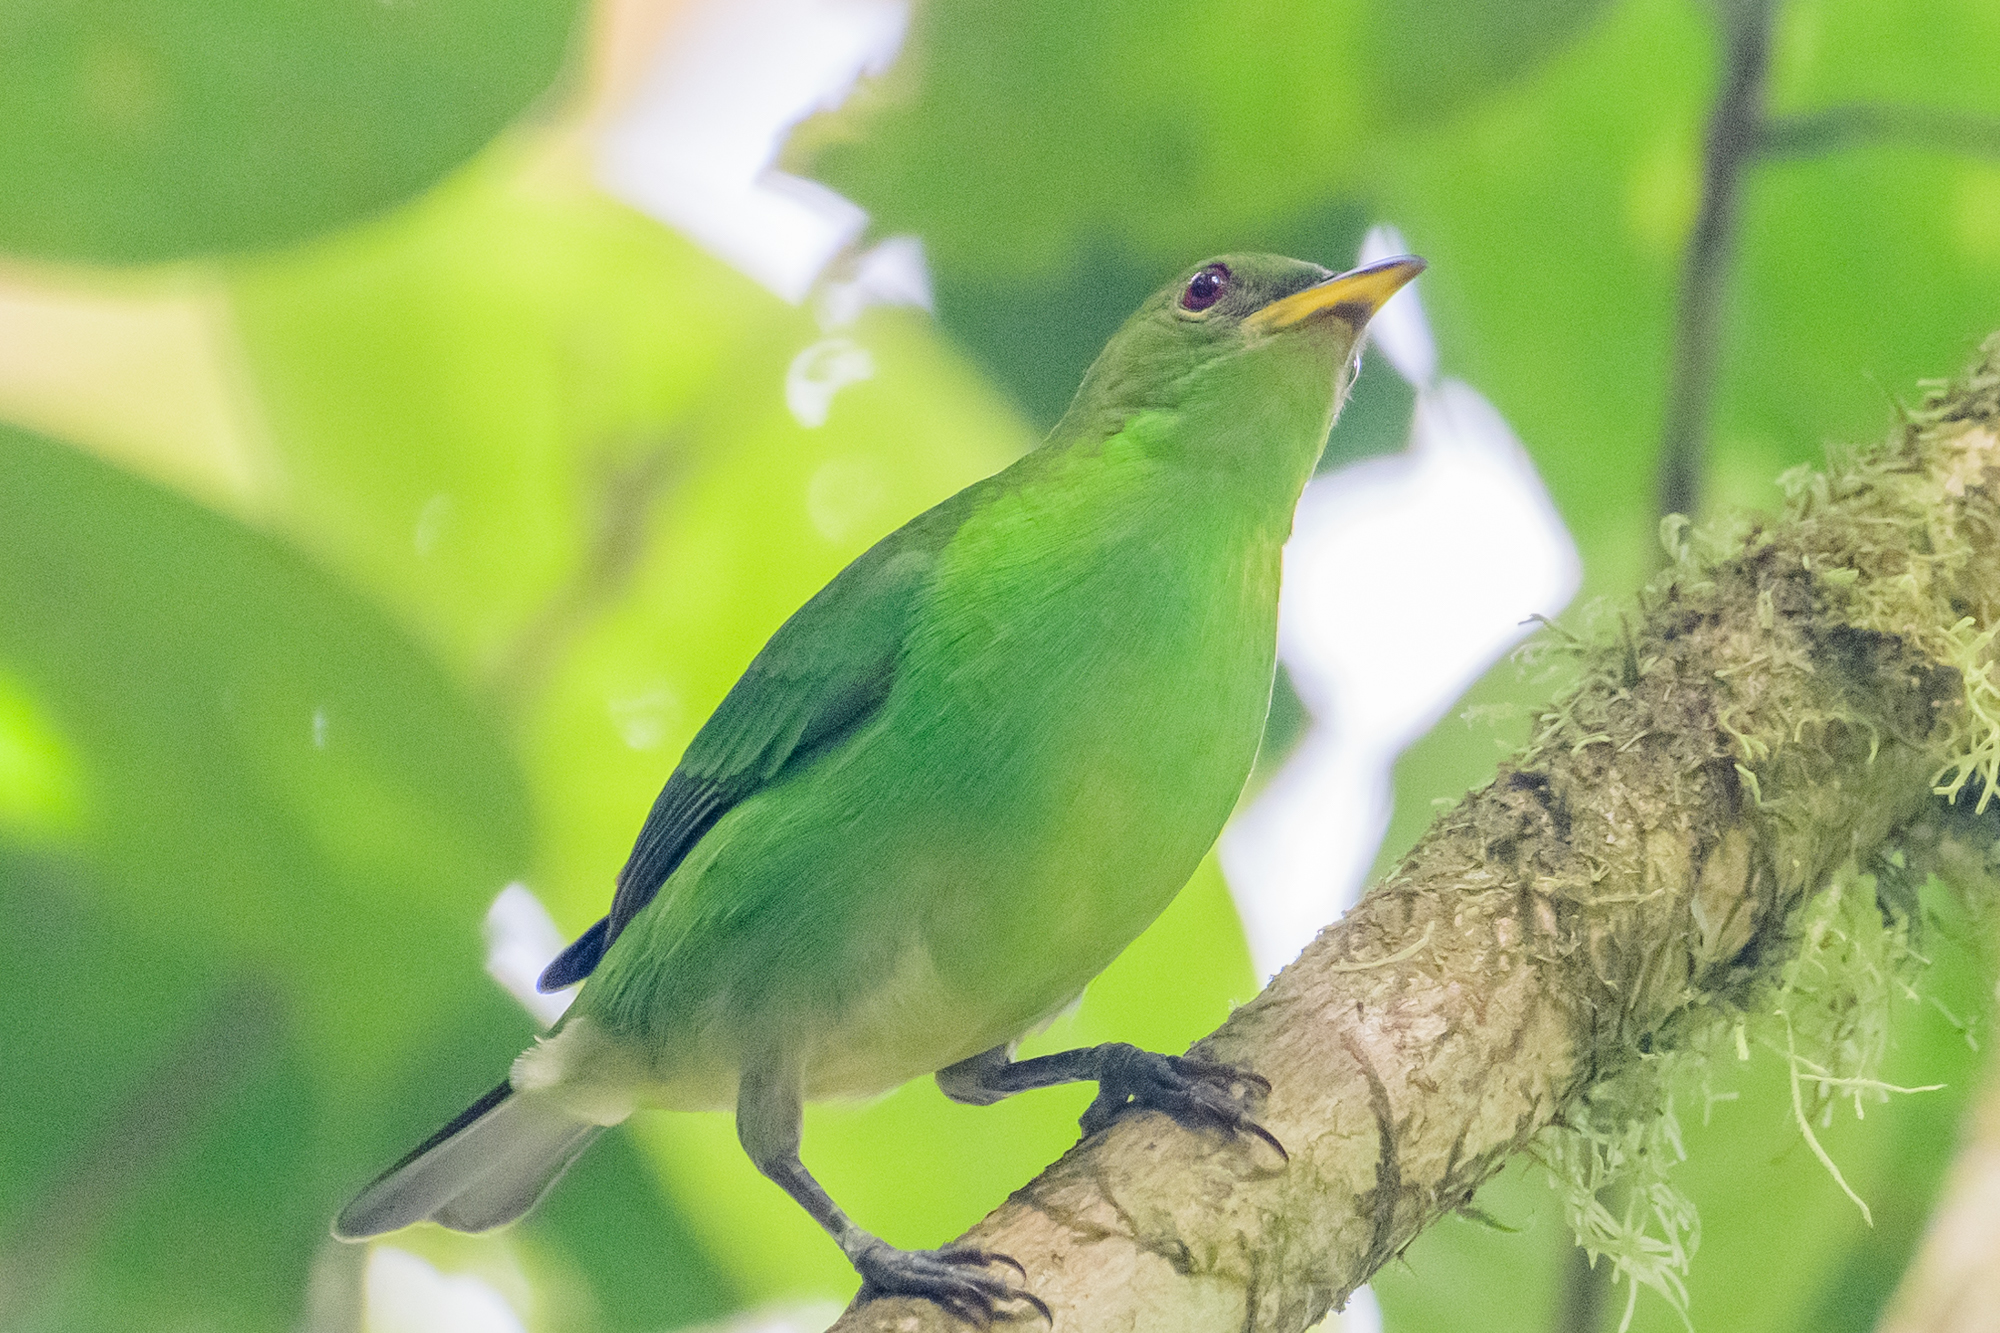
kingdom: Animalia
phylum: Chordata
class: Aves
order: Passeriformes
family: Thraupidae
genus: Chlorophanes
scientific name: Chlorophanes spiza
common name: Green honeycreeper
